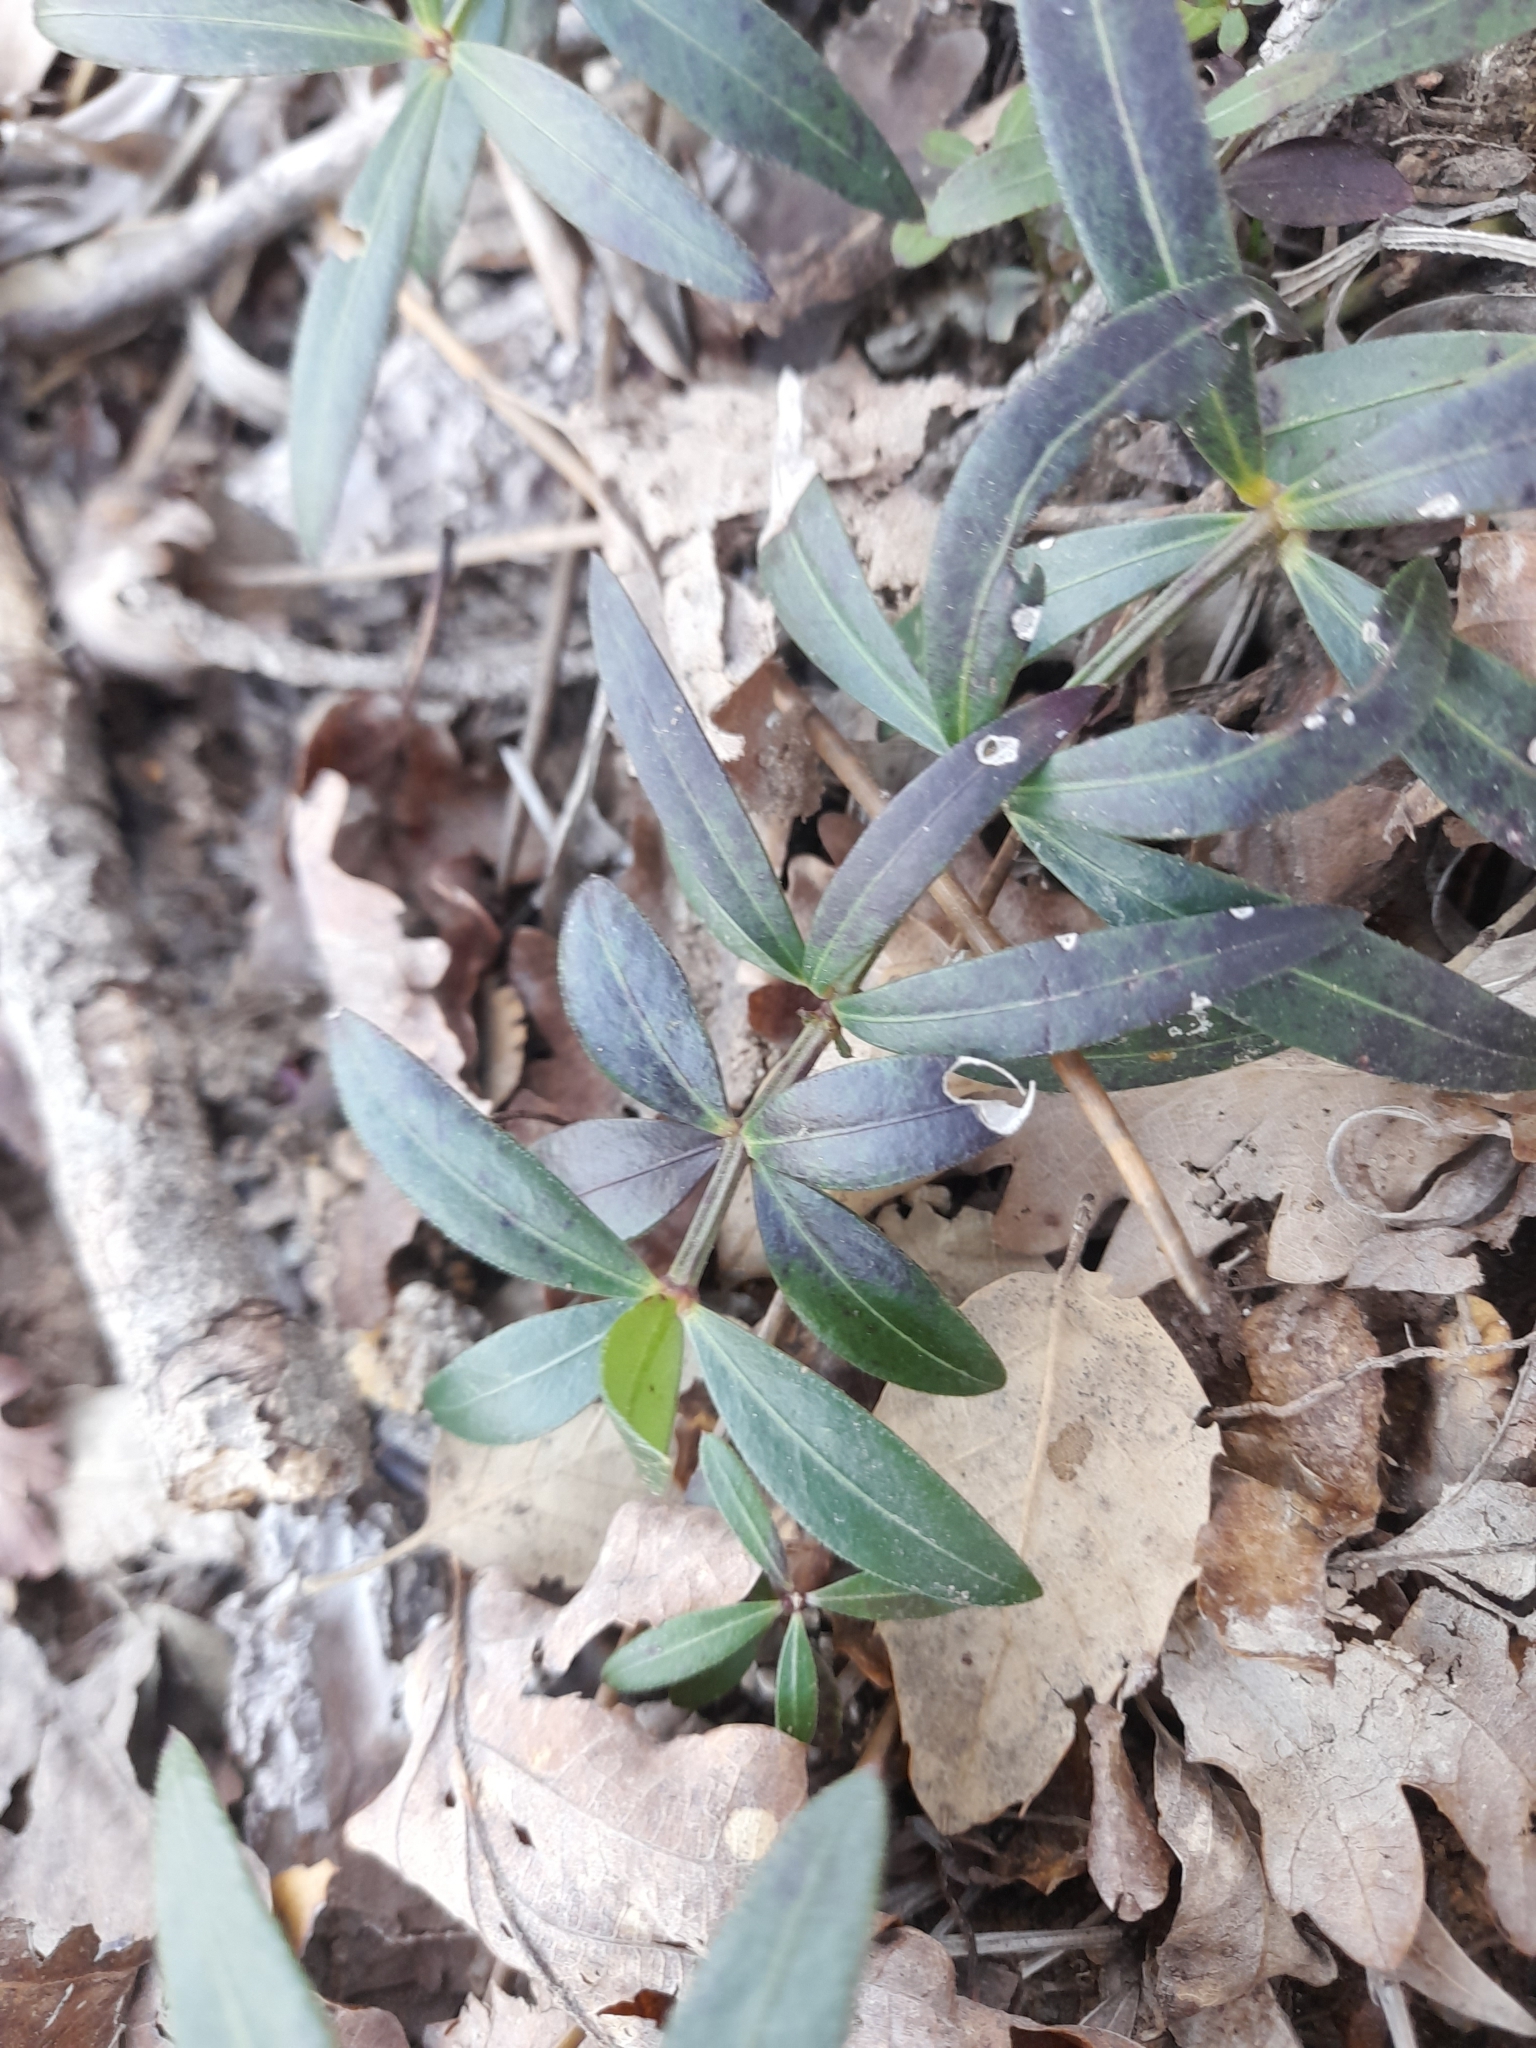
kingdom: Plantae
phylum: Tracheophyta
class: Magnoliopsida
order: Gentianales
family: Rubiaceae
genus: Rubia
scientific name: Rubia peregrina
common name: Wild madder
